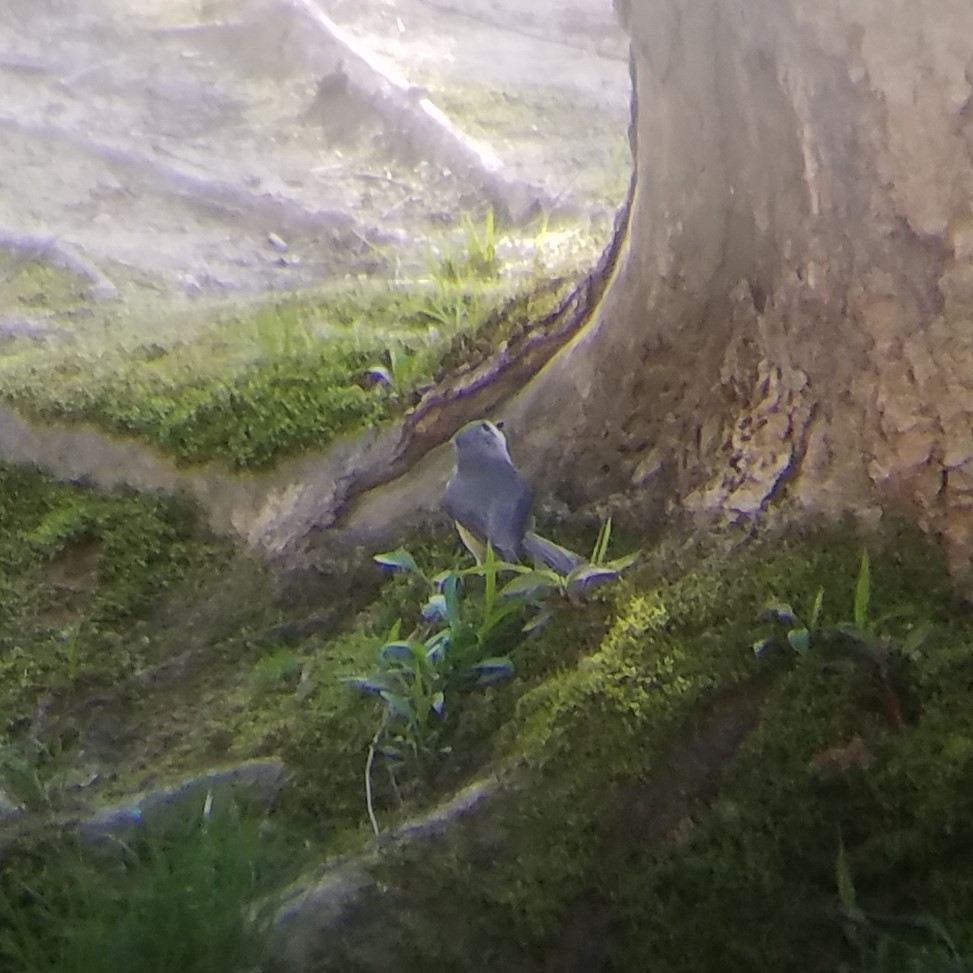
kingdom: Animalia
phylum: Chordata
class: Aves
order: Passeriformes
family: Paridae
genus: Baeolophus
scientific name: Baeolophus bicolor
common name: Tufted titmouse
